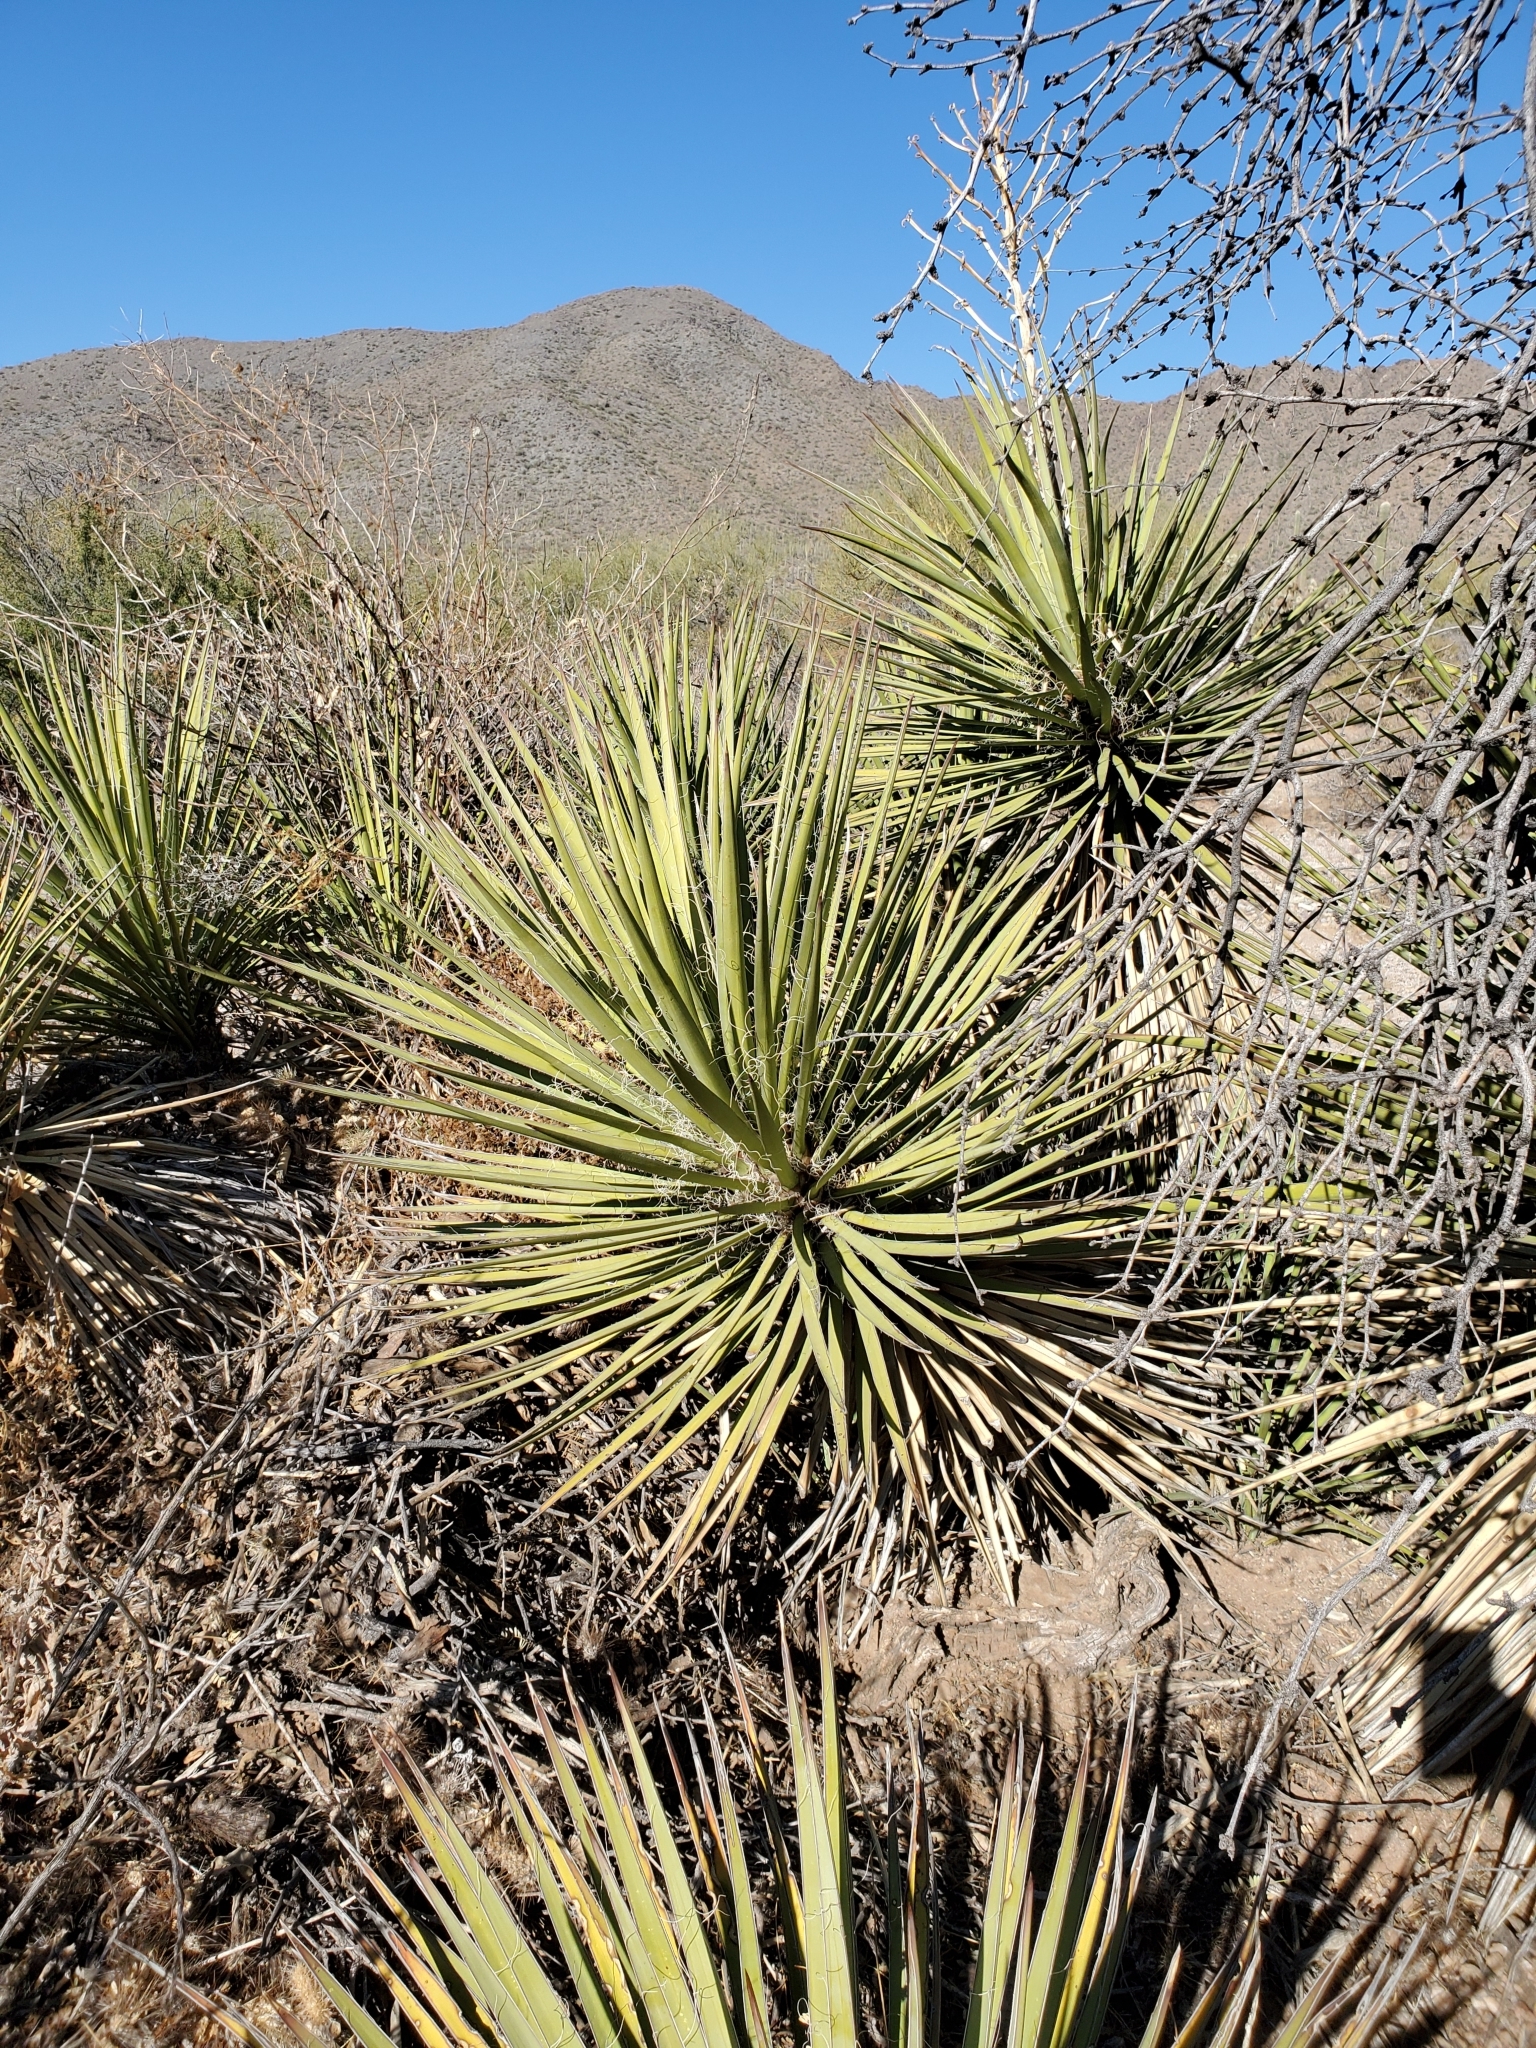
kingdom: Plantae
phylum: Tracheophyta
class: Liliopsida
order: Asparagales
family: Asparagaceae
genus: Yucca
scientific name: Yucca baccata
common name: Banana yucca
